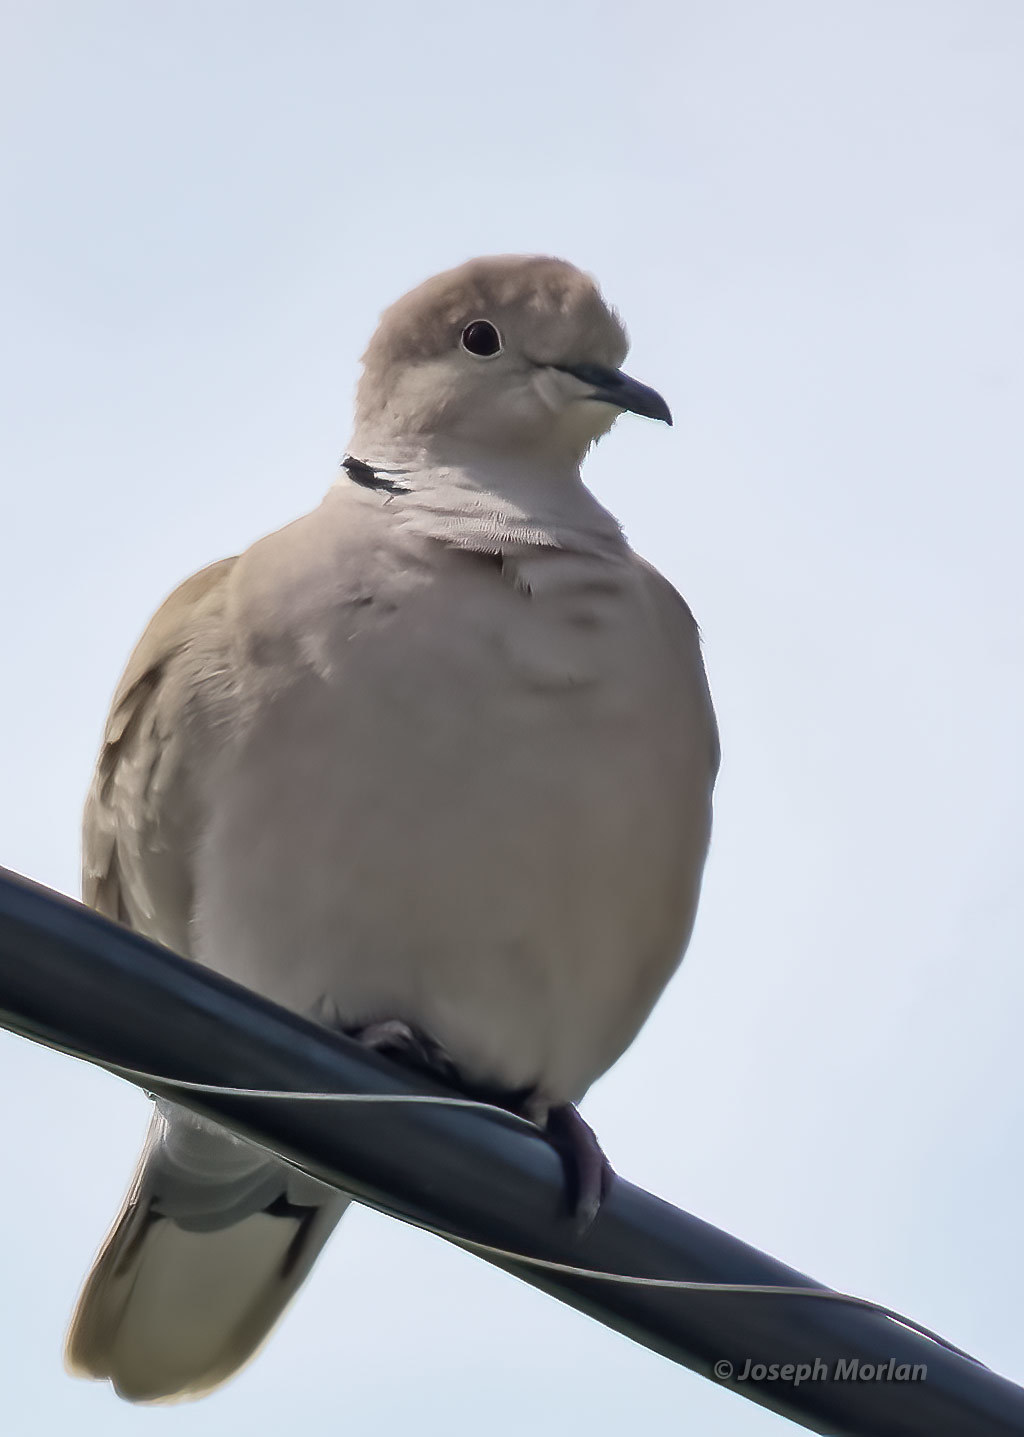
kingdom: Animalia
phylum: Chordata
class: Aves
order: Columbiformes
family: Columbidae
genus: Streptopelia
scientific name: Streptopelia decaocto
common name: Eurasian collared dove
